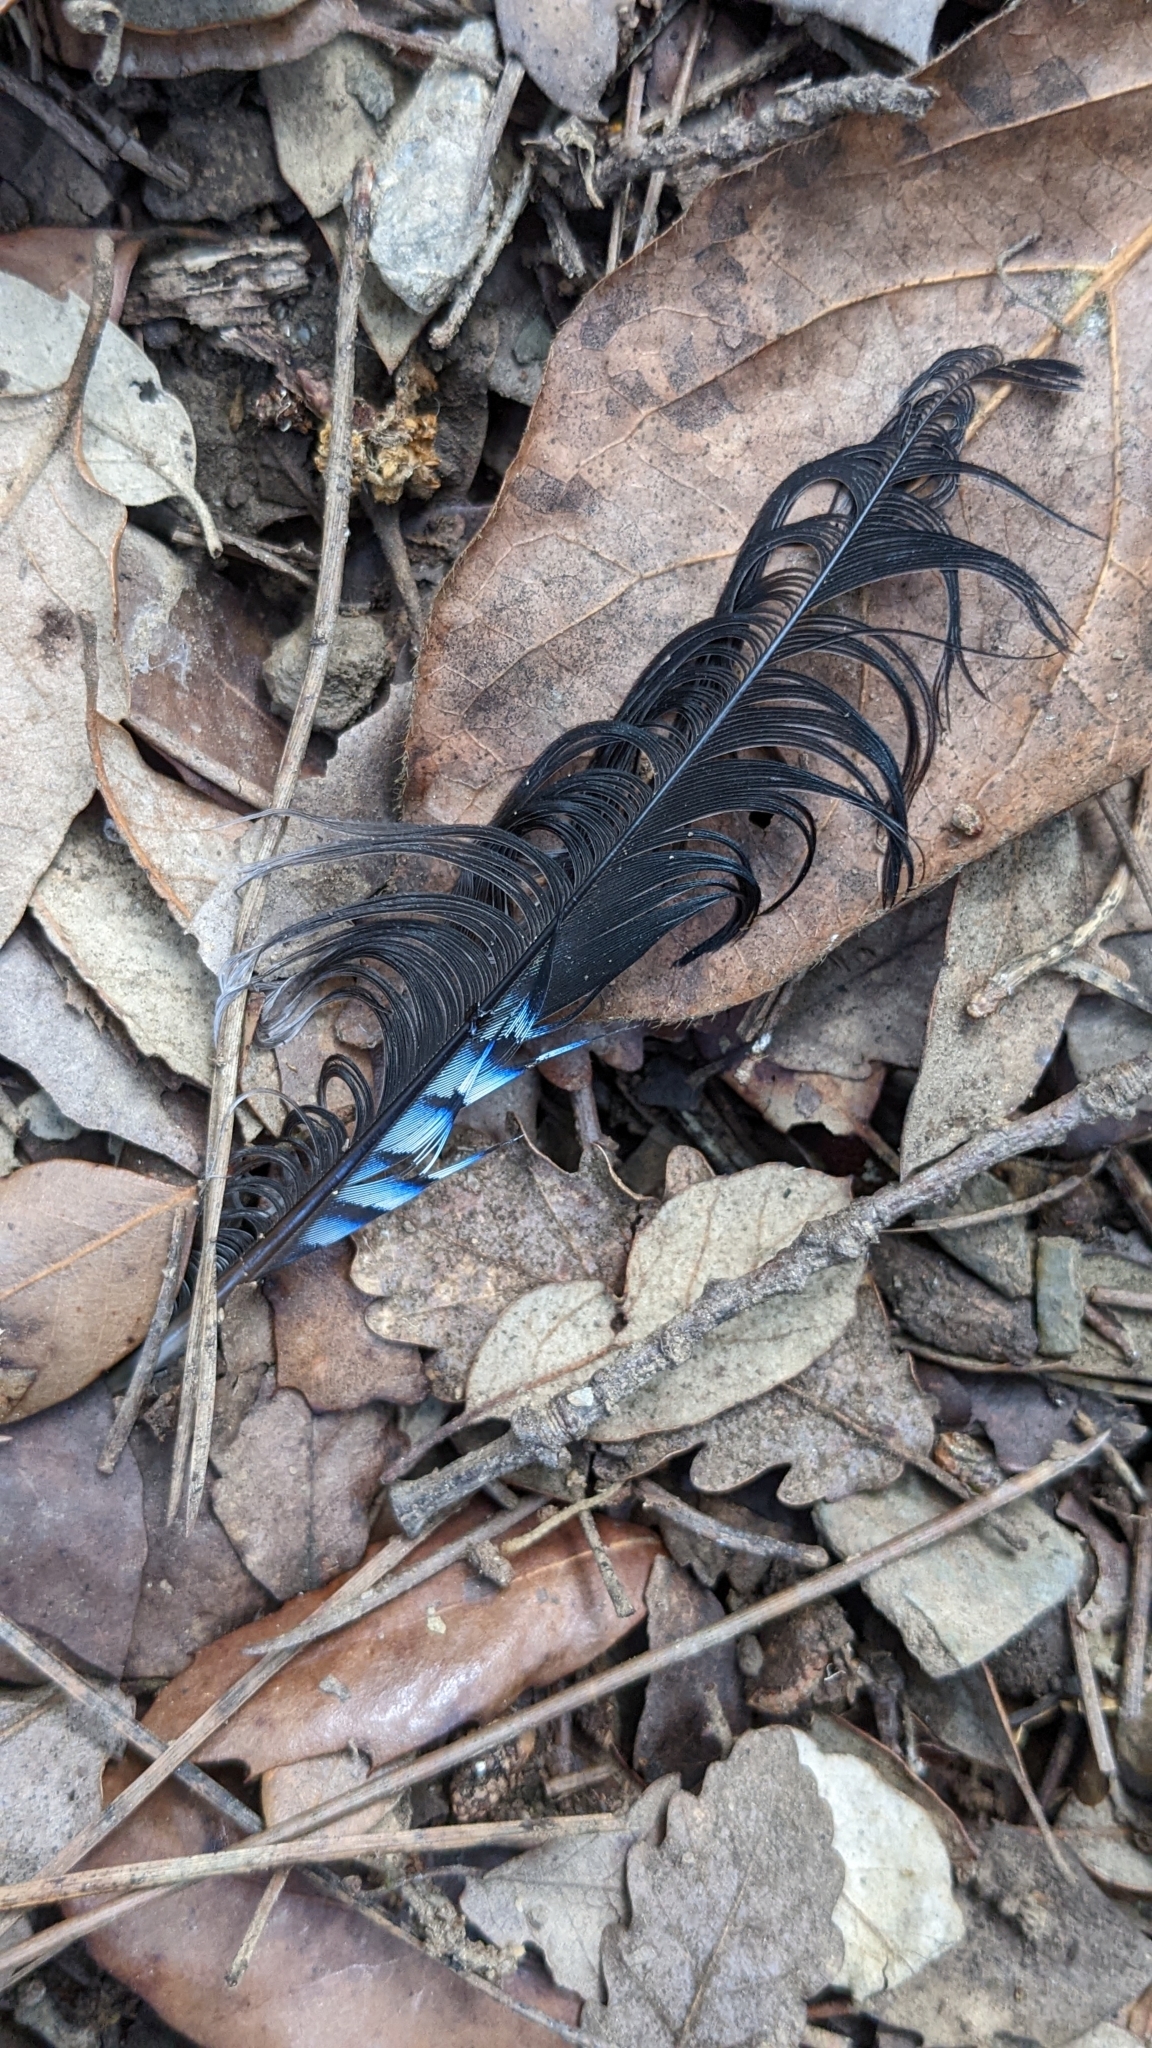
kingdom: Animalia
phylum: Chordata
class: Aves
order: Passeriformes
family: Corvidae
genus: Garrulus
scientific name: Garrulus glandarius
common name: Eurasian jay
